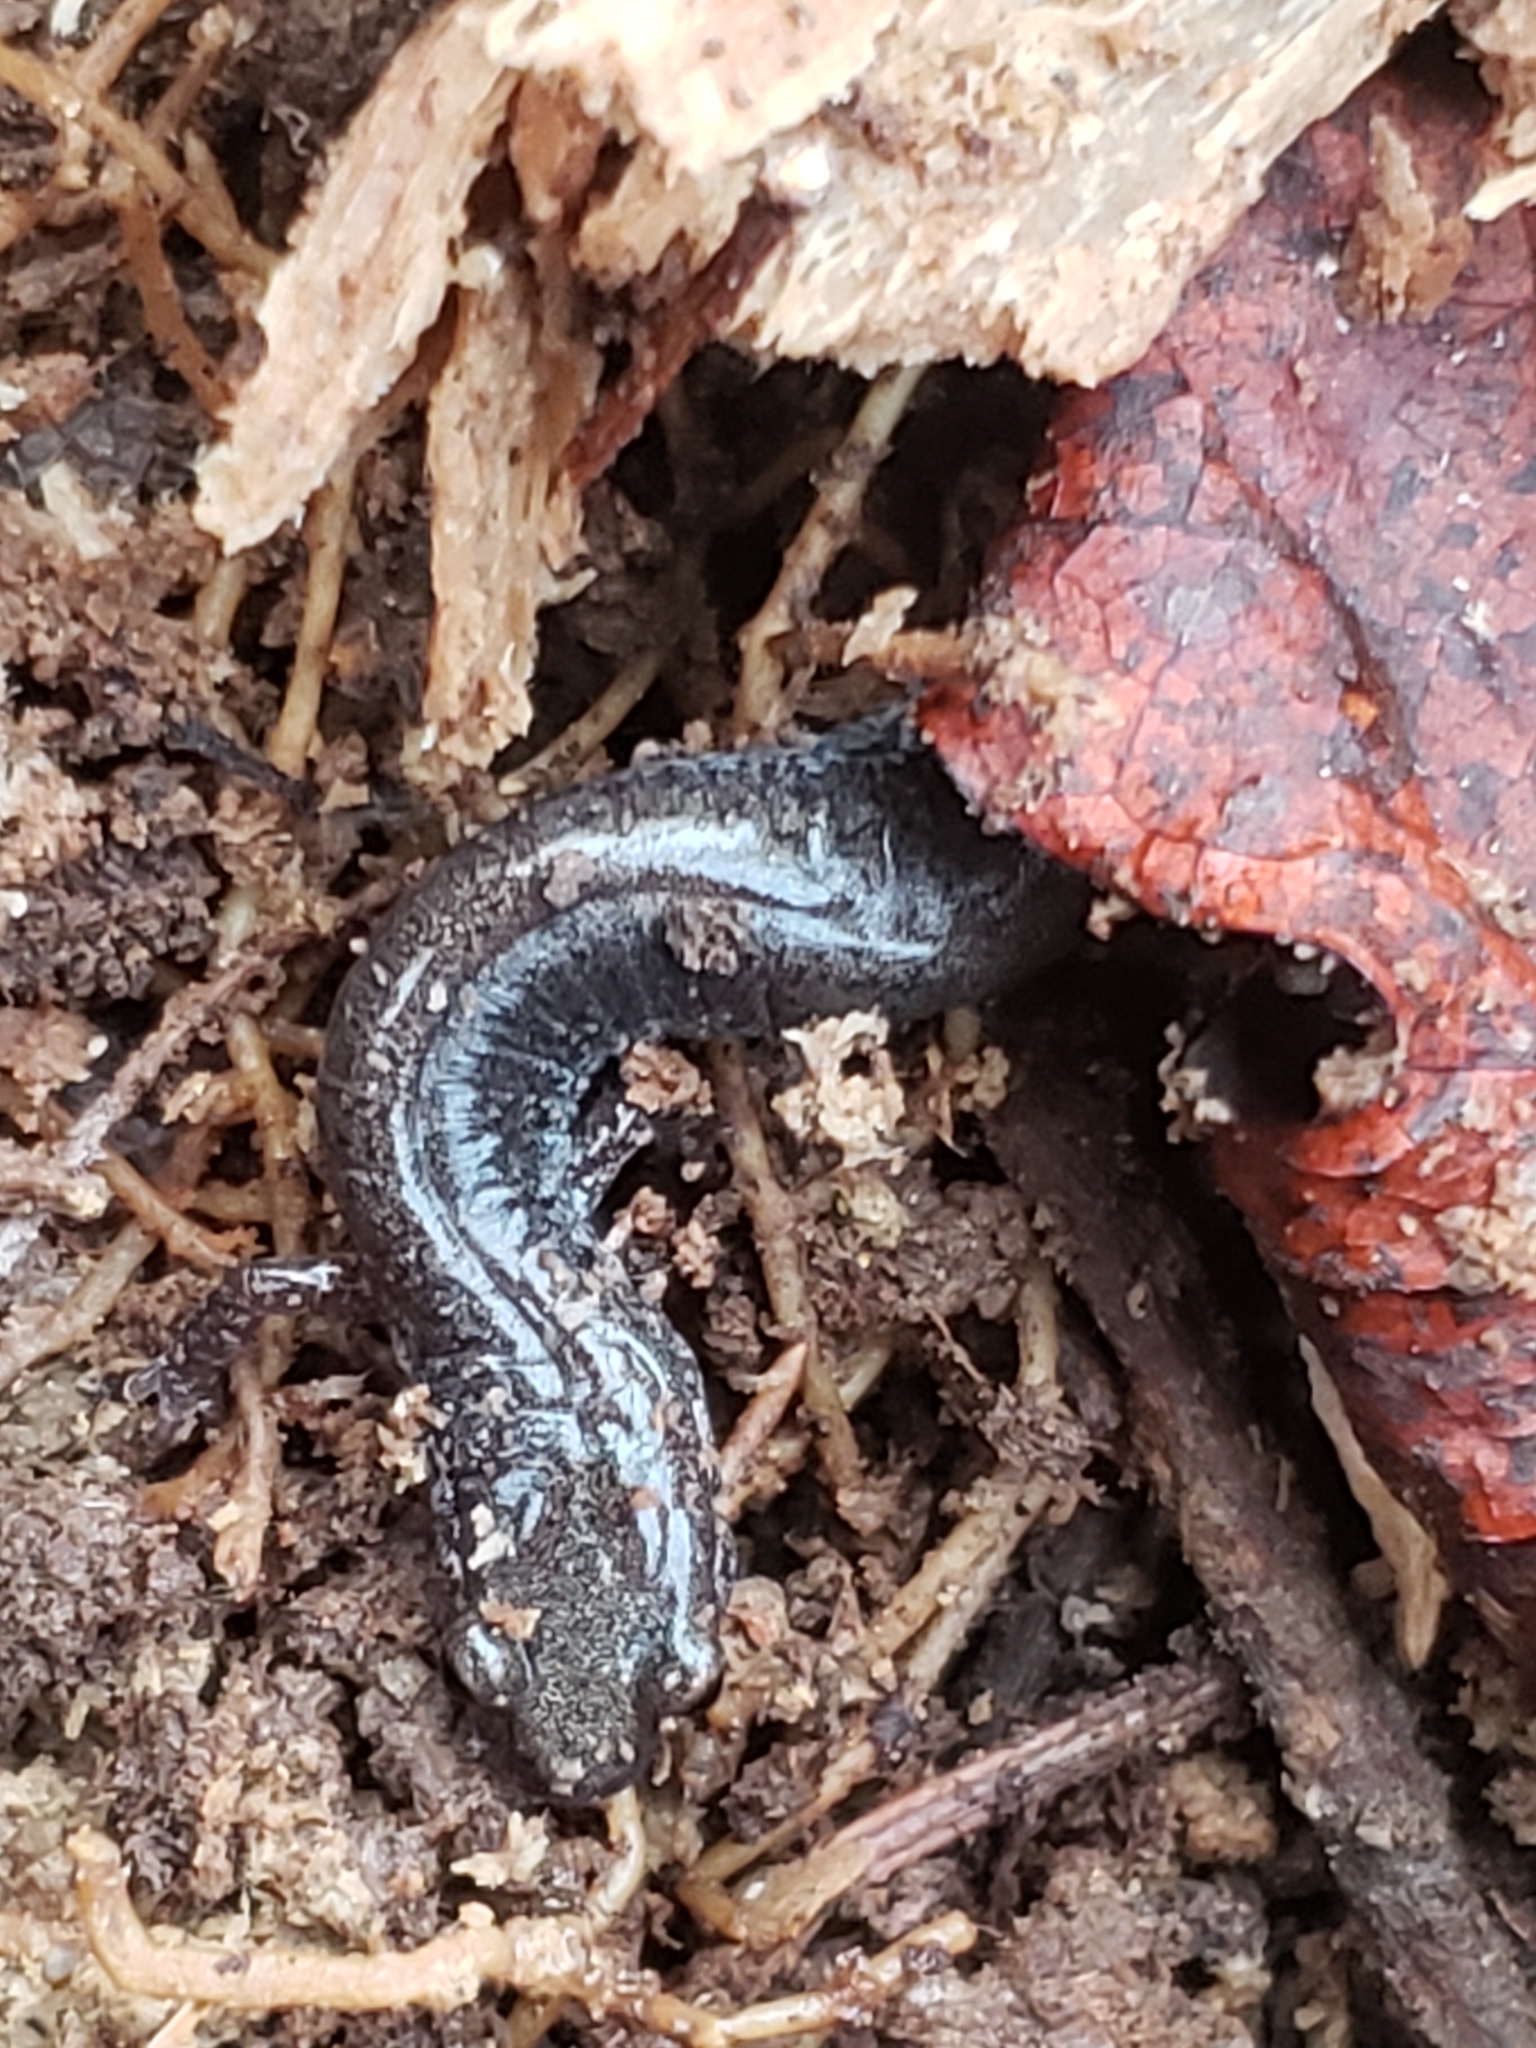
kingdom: Animalia
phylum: Chordata
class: Amphibia
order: Caudata
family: Plethodontidae
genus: Plethodon
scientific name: Plethodon cinereus
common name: Redback salamander
